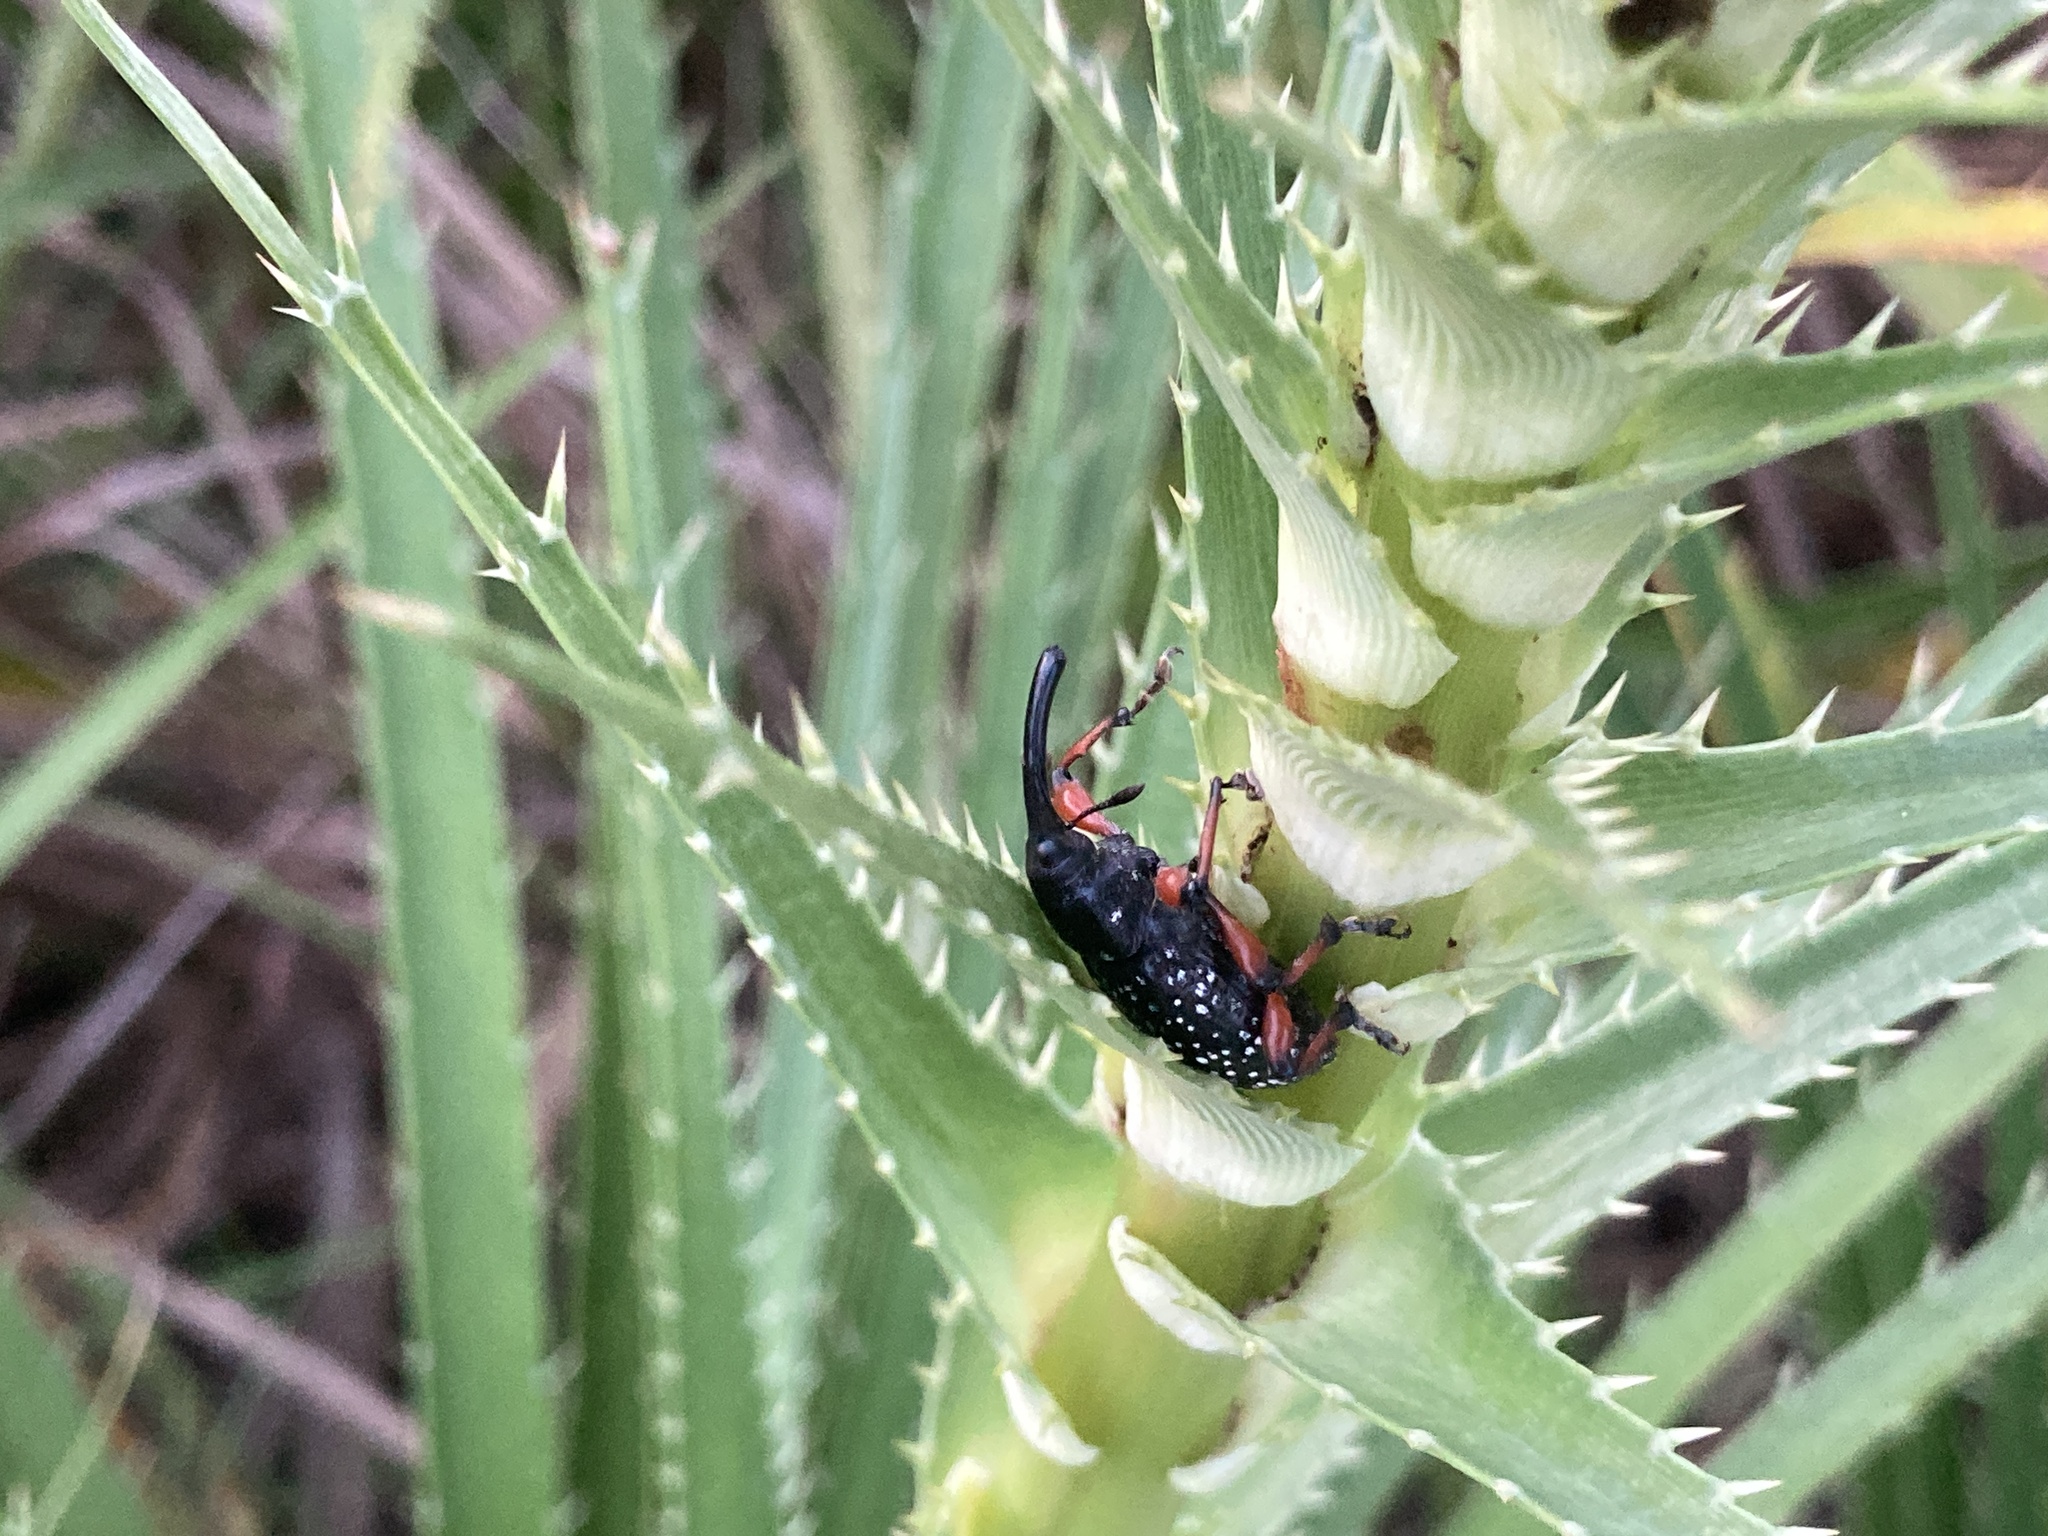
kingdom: Animalia
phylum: Arthropoda
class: Insecta
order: Coleoptera
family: Curculionidae
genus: Heilipodus
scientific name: Heilipodus erythropus
